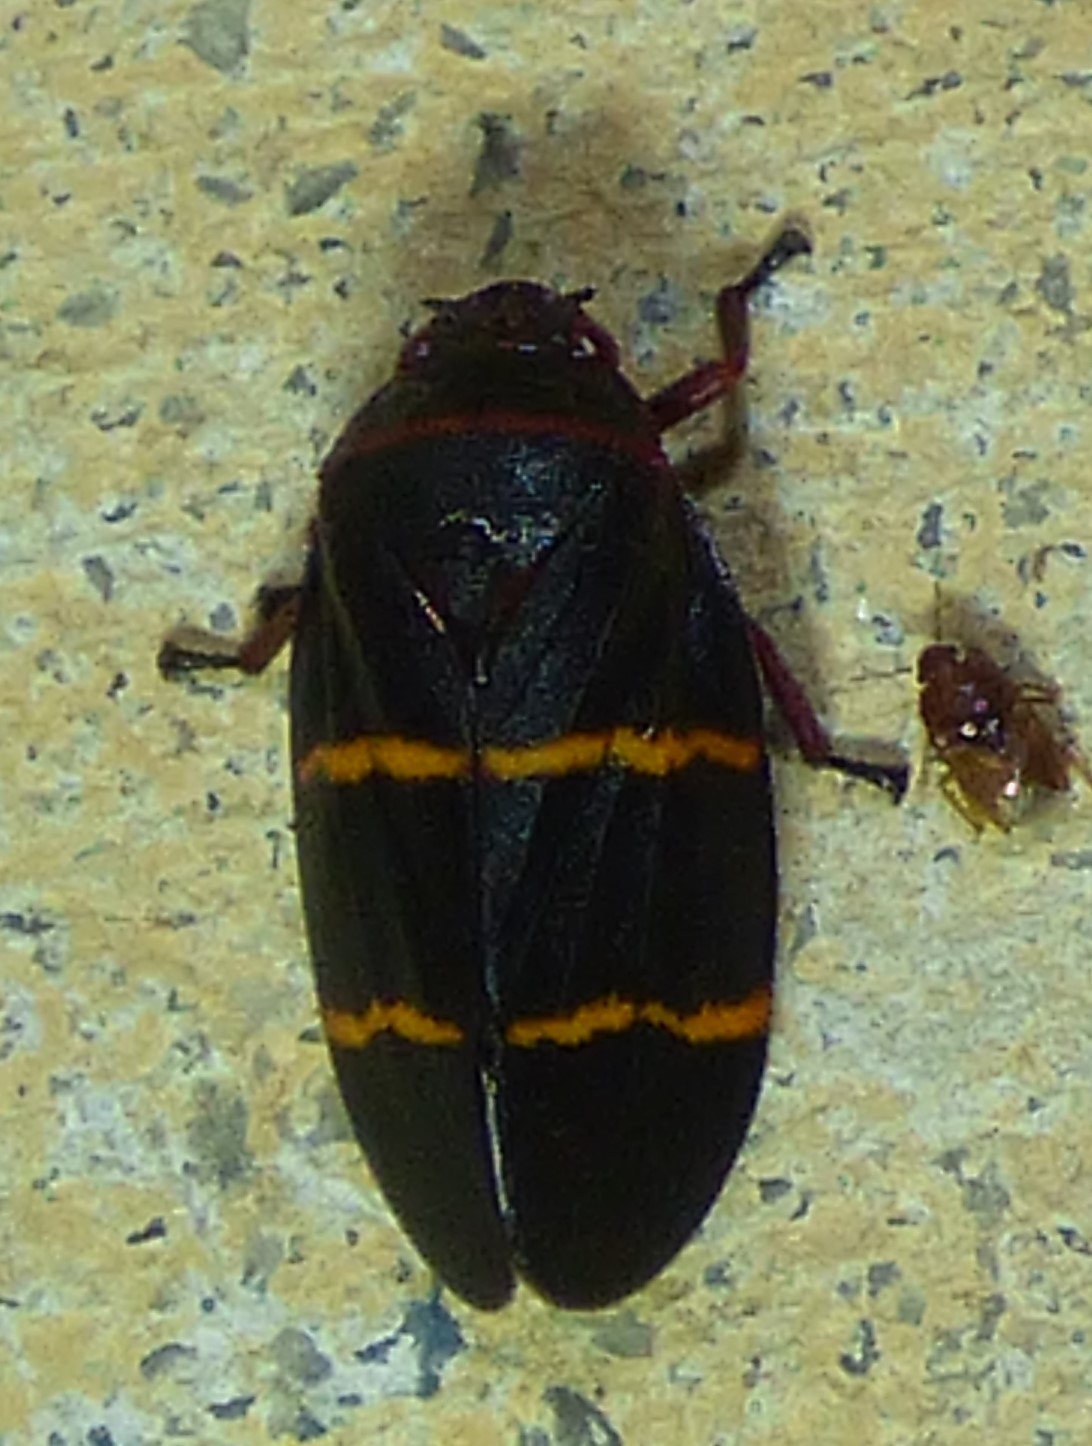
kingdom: Animalia
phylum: Arthropoda
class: Insecta
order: Hemiptera
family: Cercopidae
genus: Prosapia
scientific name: Prosapia bicincta
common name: Twolined spittlebug
